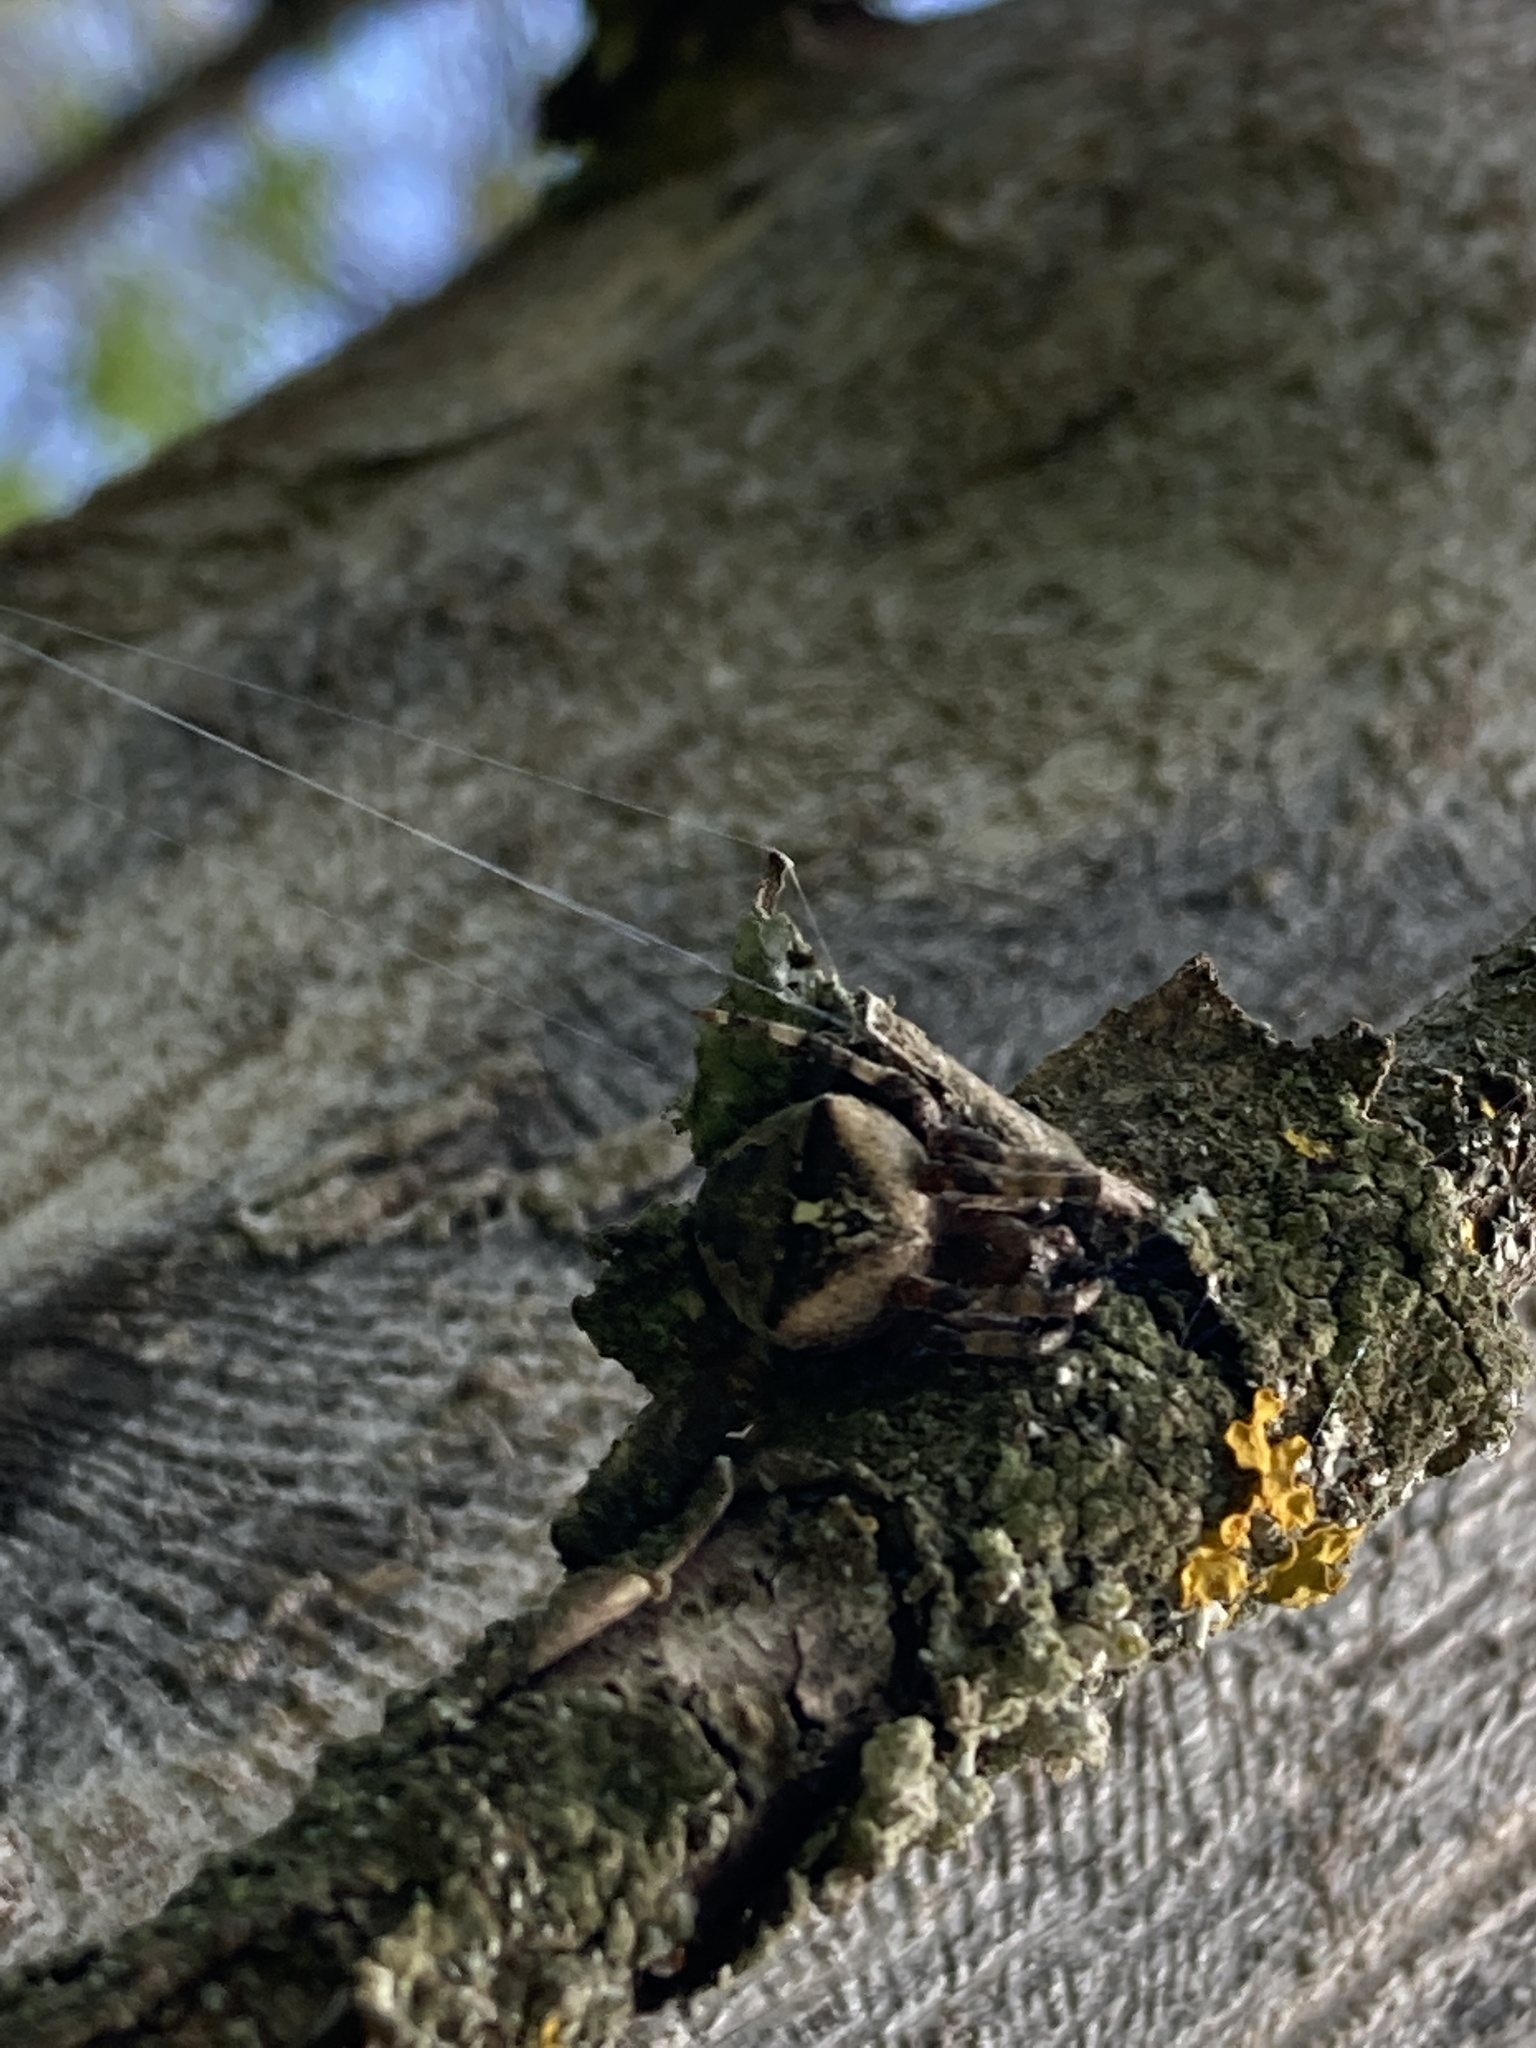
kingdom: Animalia
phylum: Arthropoda
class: Arachnida
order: Araneae
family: Araneidae
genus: Araneus
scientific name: Araneus angulatus
